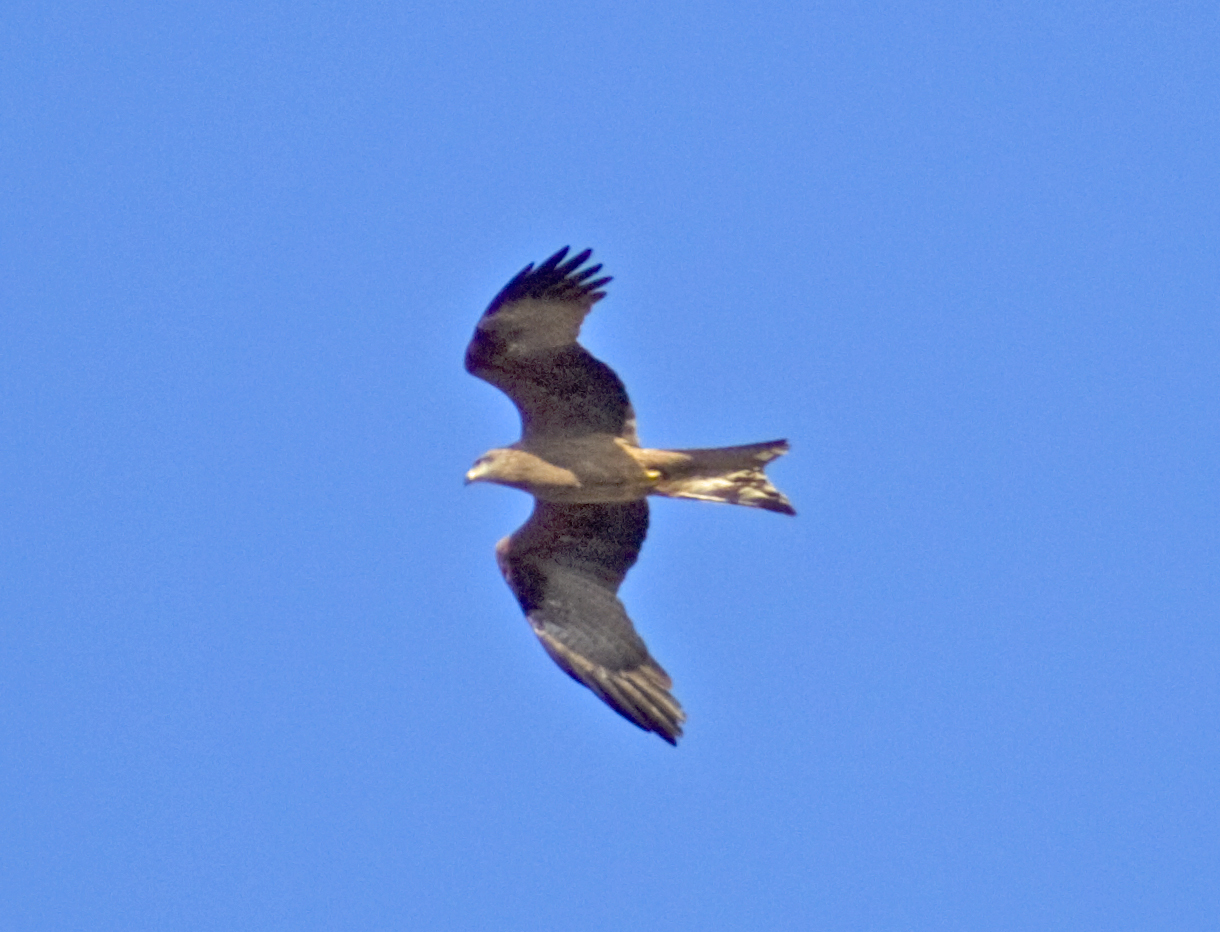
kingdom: Animalia
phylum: Chordata
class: Aves
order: Accipitriformes
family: Accipitridae
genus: Milvus
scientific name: Milvus migrans
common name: Black kite
